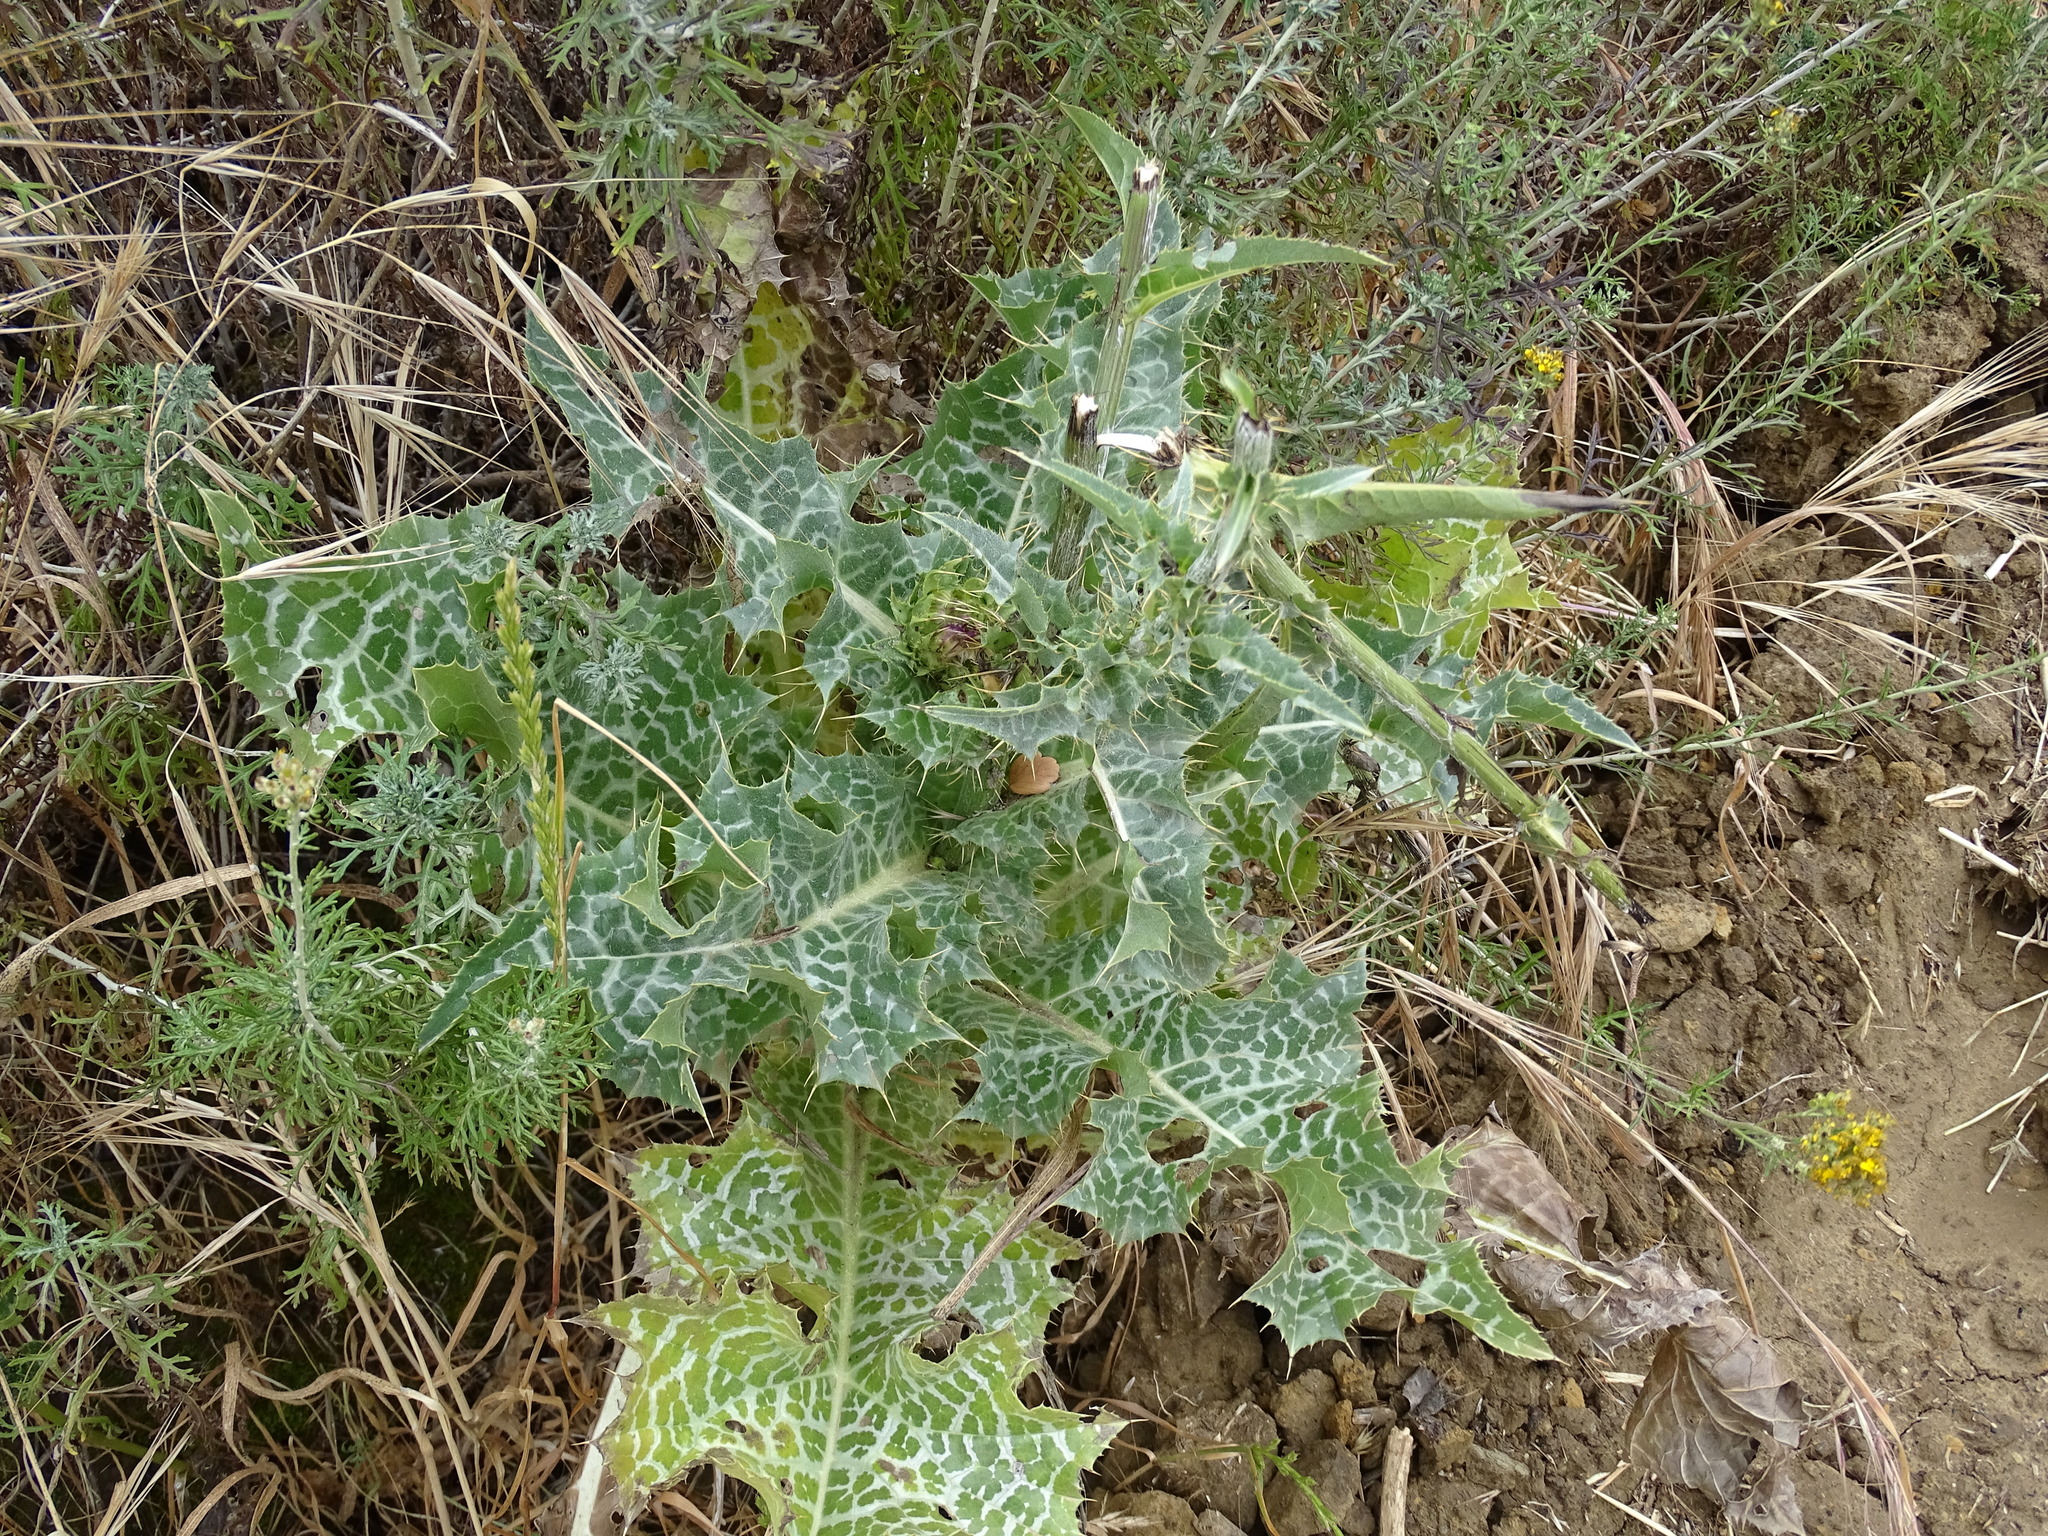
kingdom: Plantae
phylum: Tracheophyta
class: Magnoliopsida
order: Asterales
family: Asteraceae
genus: Silybum
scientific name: Silybum marianum
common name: Milk thistle
